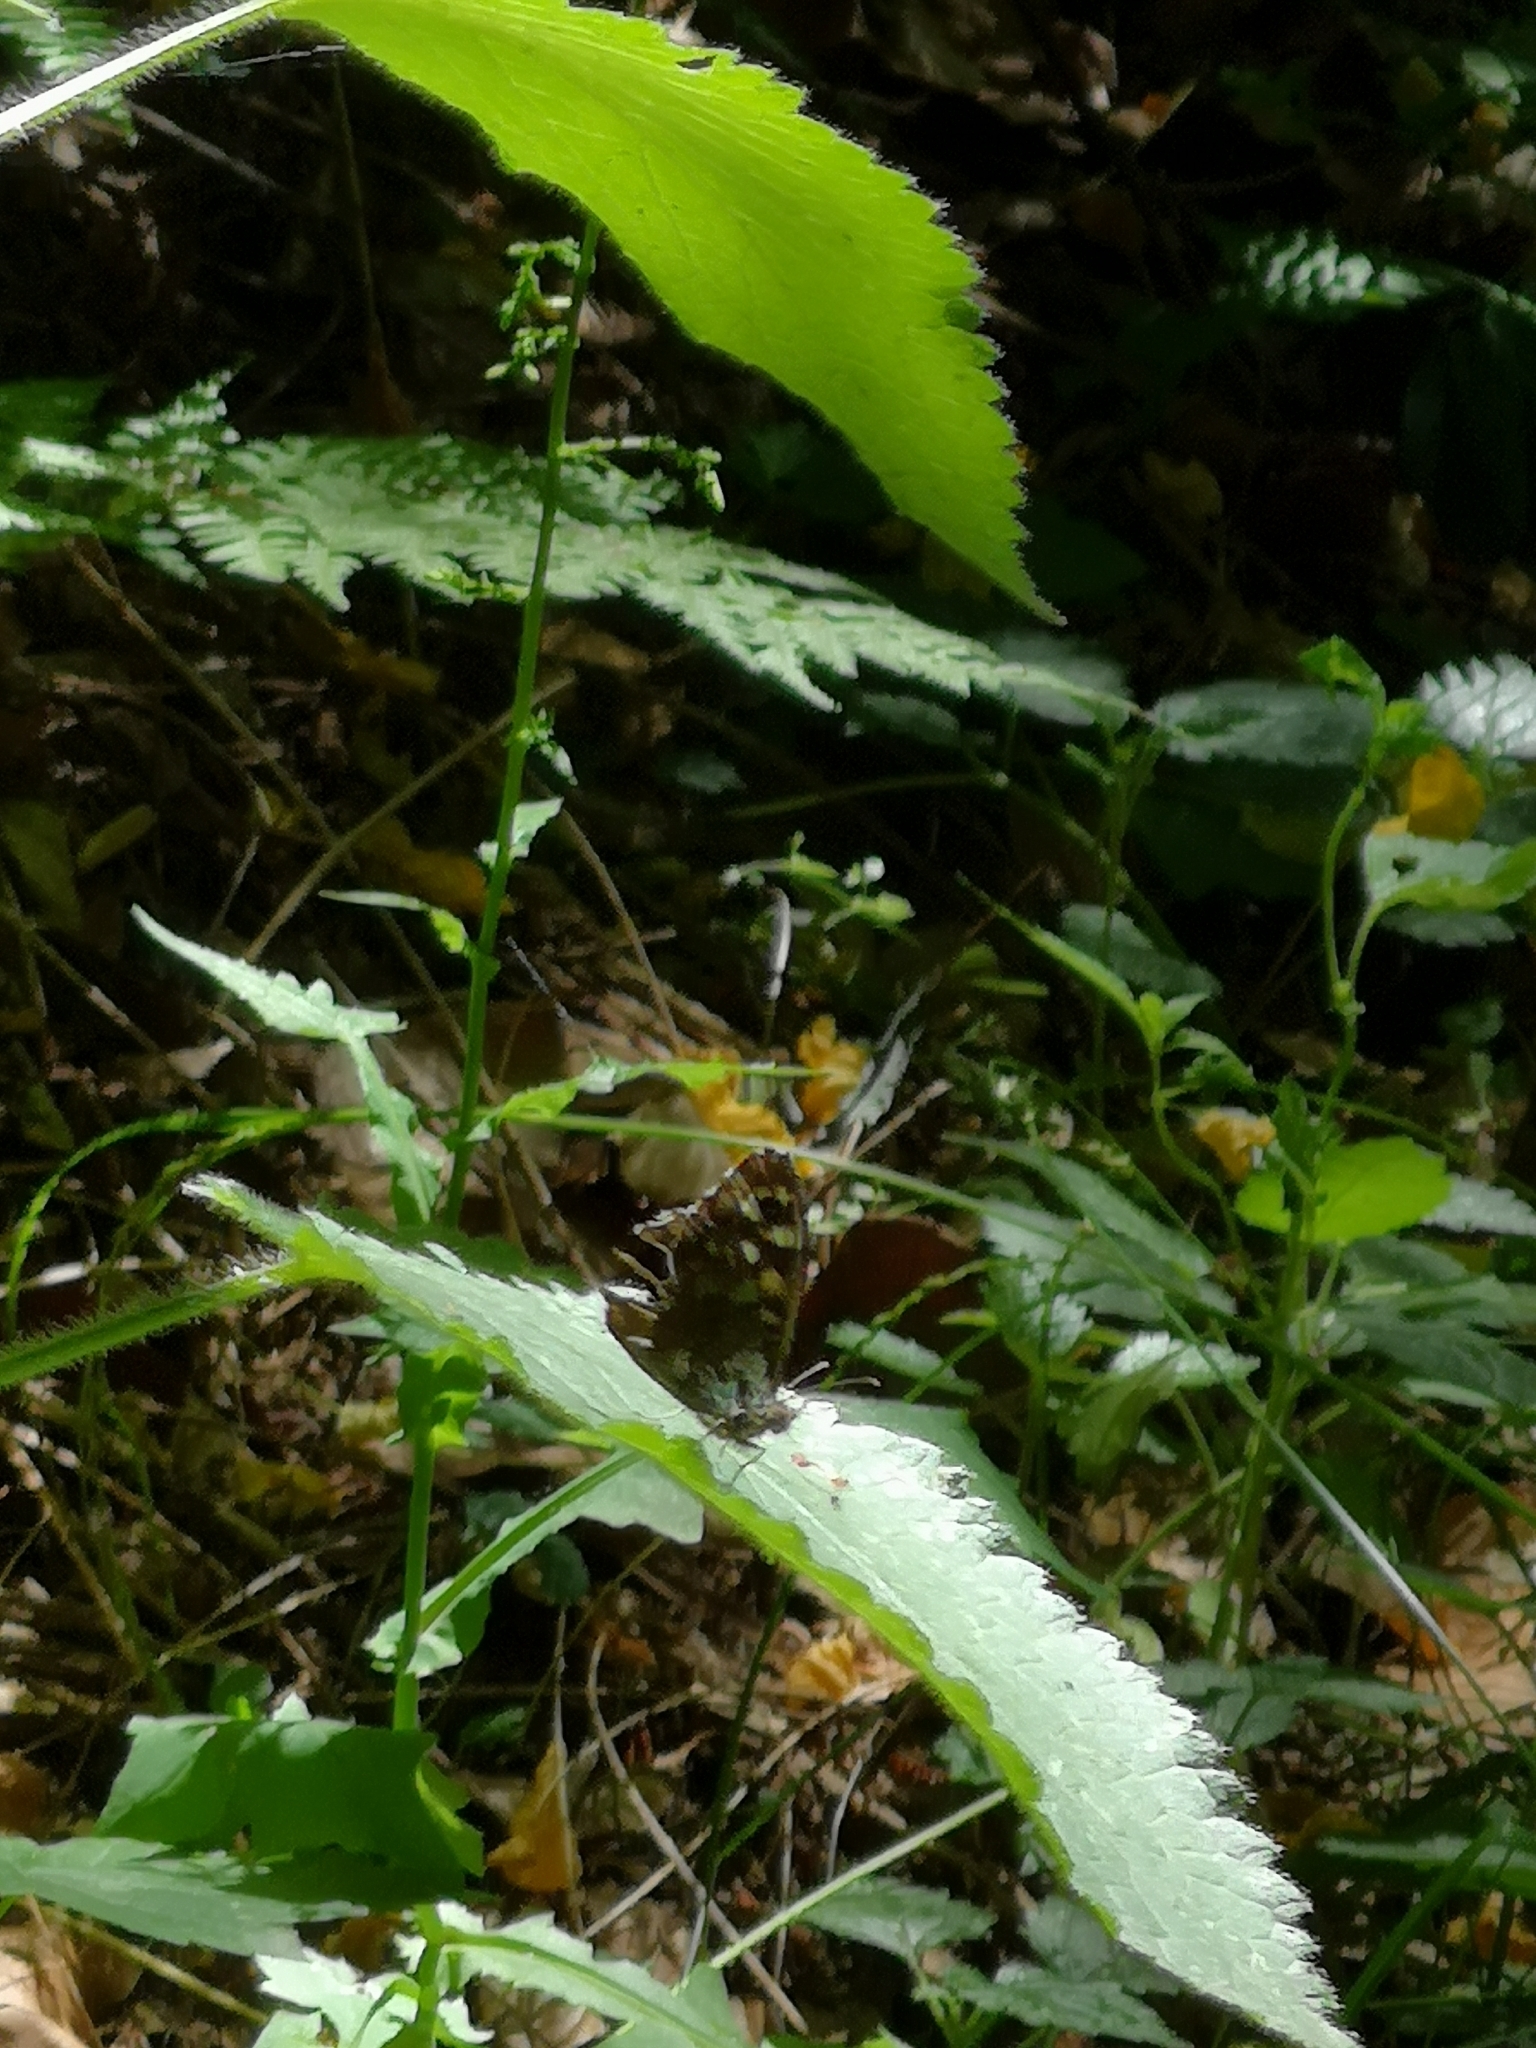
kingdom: Animalia
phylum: Arthropoda
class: Insecta
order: Lepidoptera
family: Nymphalidae
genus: Pararge
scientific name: Pararge aegeria
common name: Speckled wood
